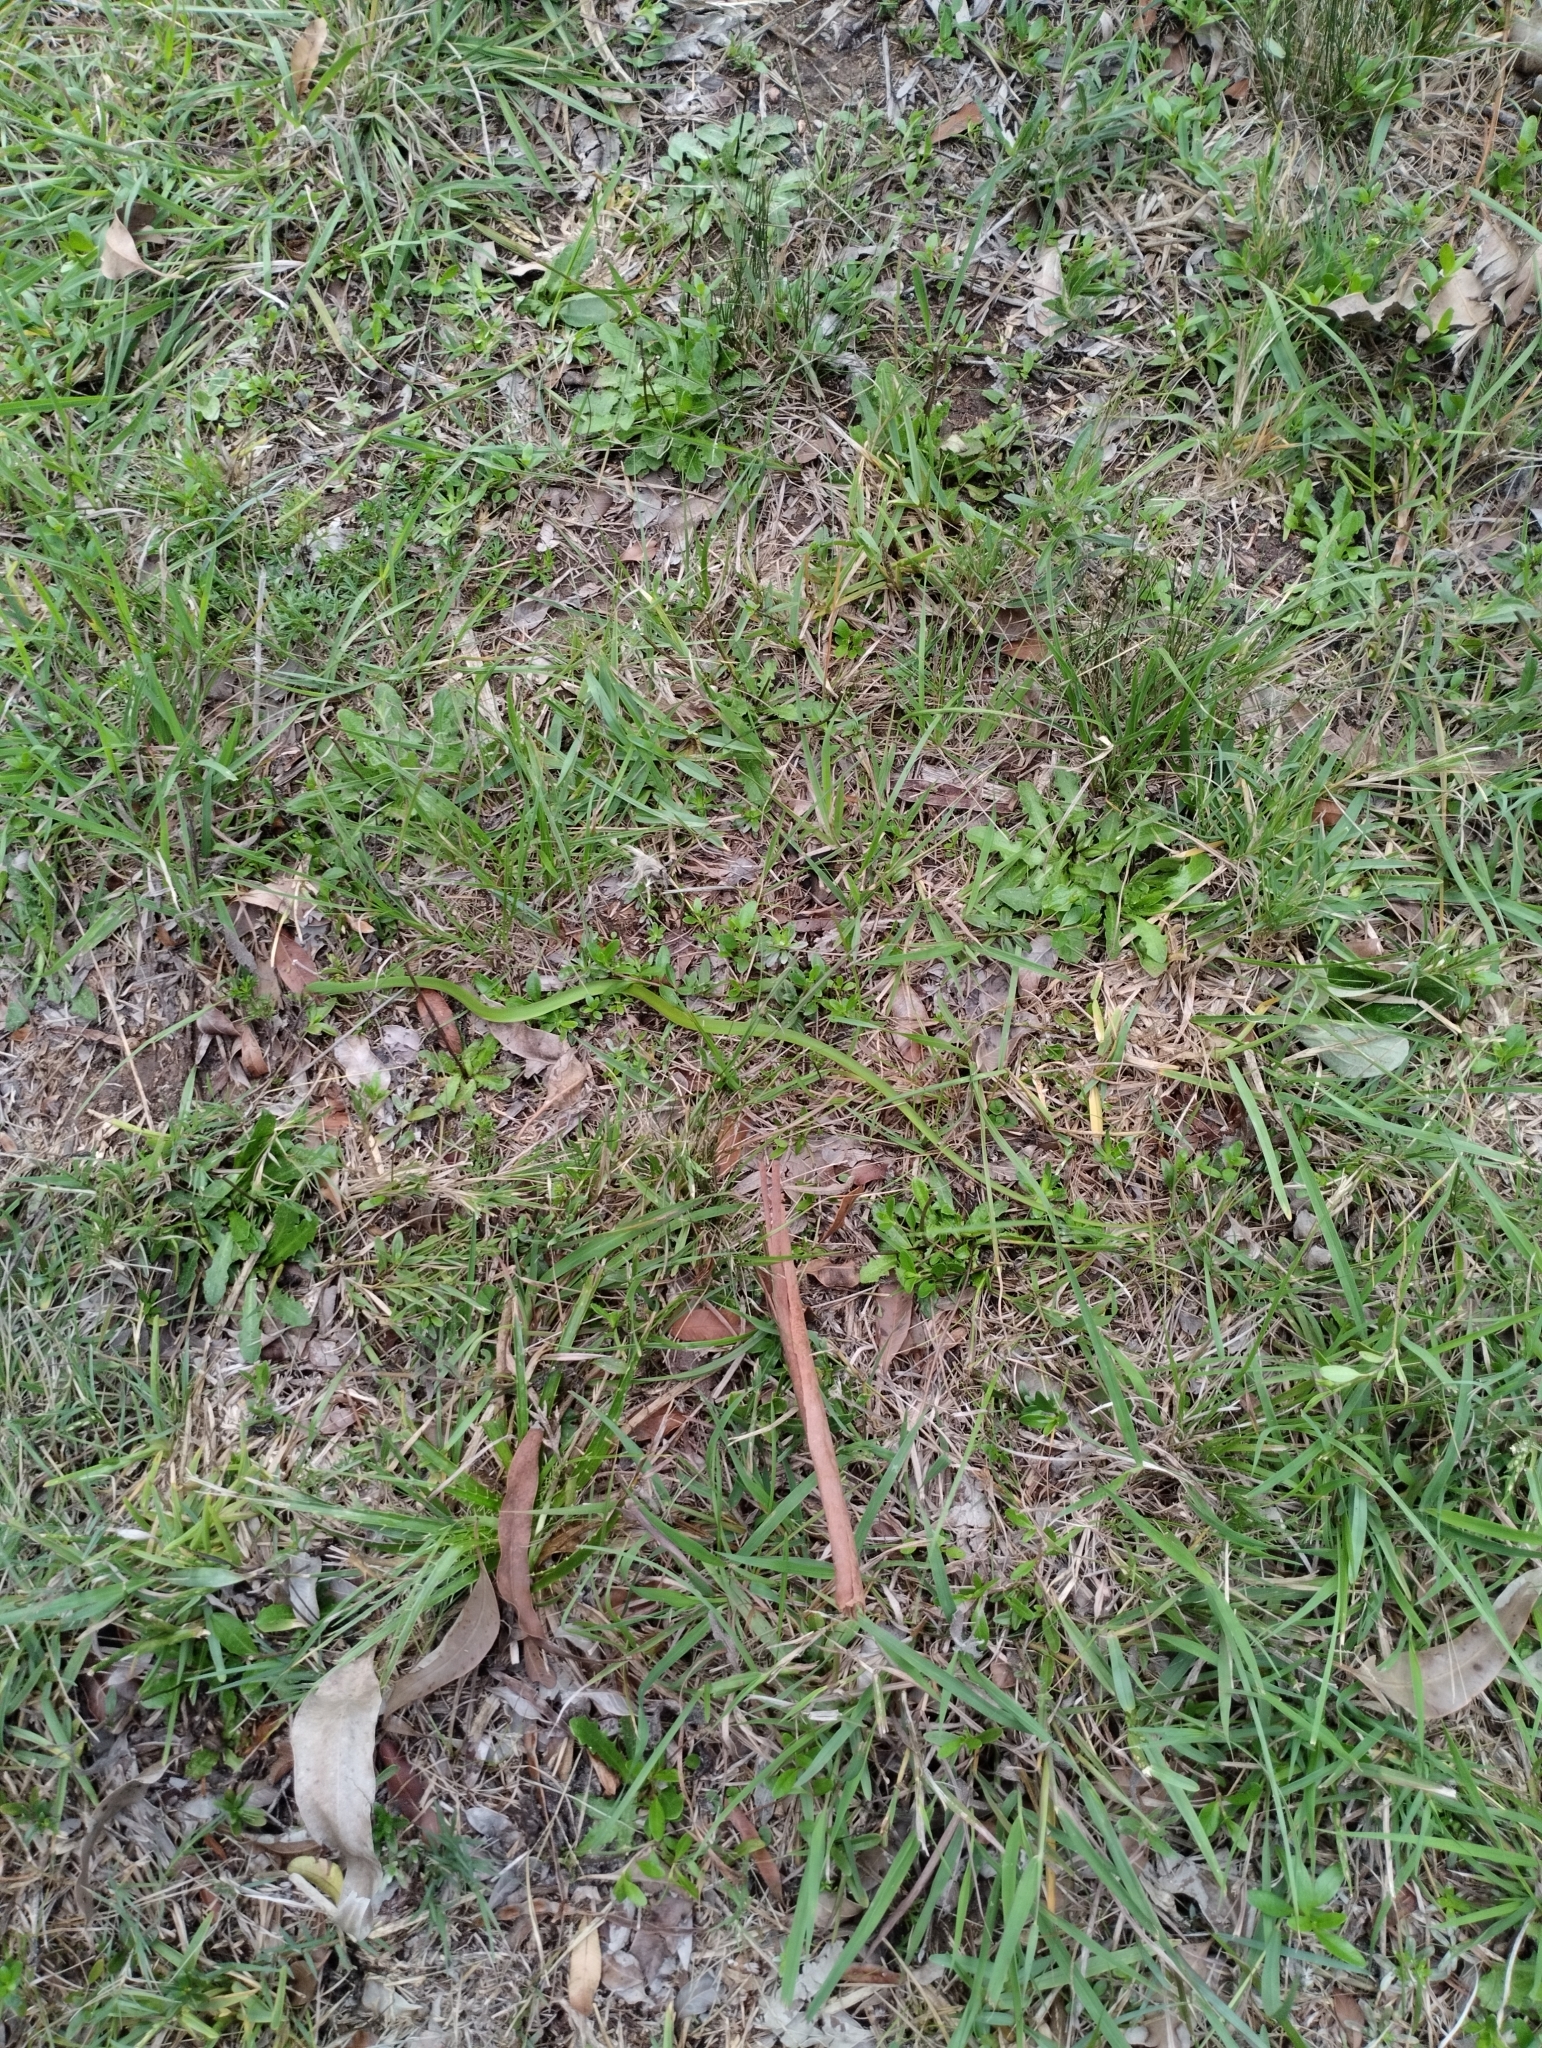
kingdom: Animalia
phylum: Chordata
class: Squamata
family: Colubridae
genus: Philodryas
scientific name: Philodryas aestiva
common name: Brazilian green racer
